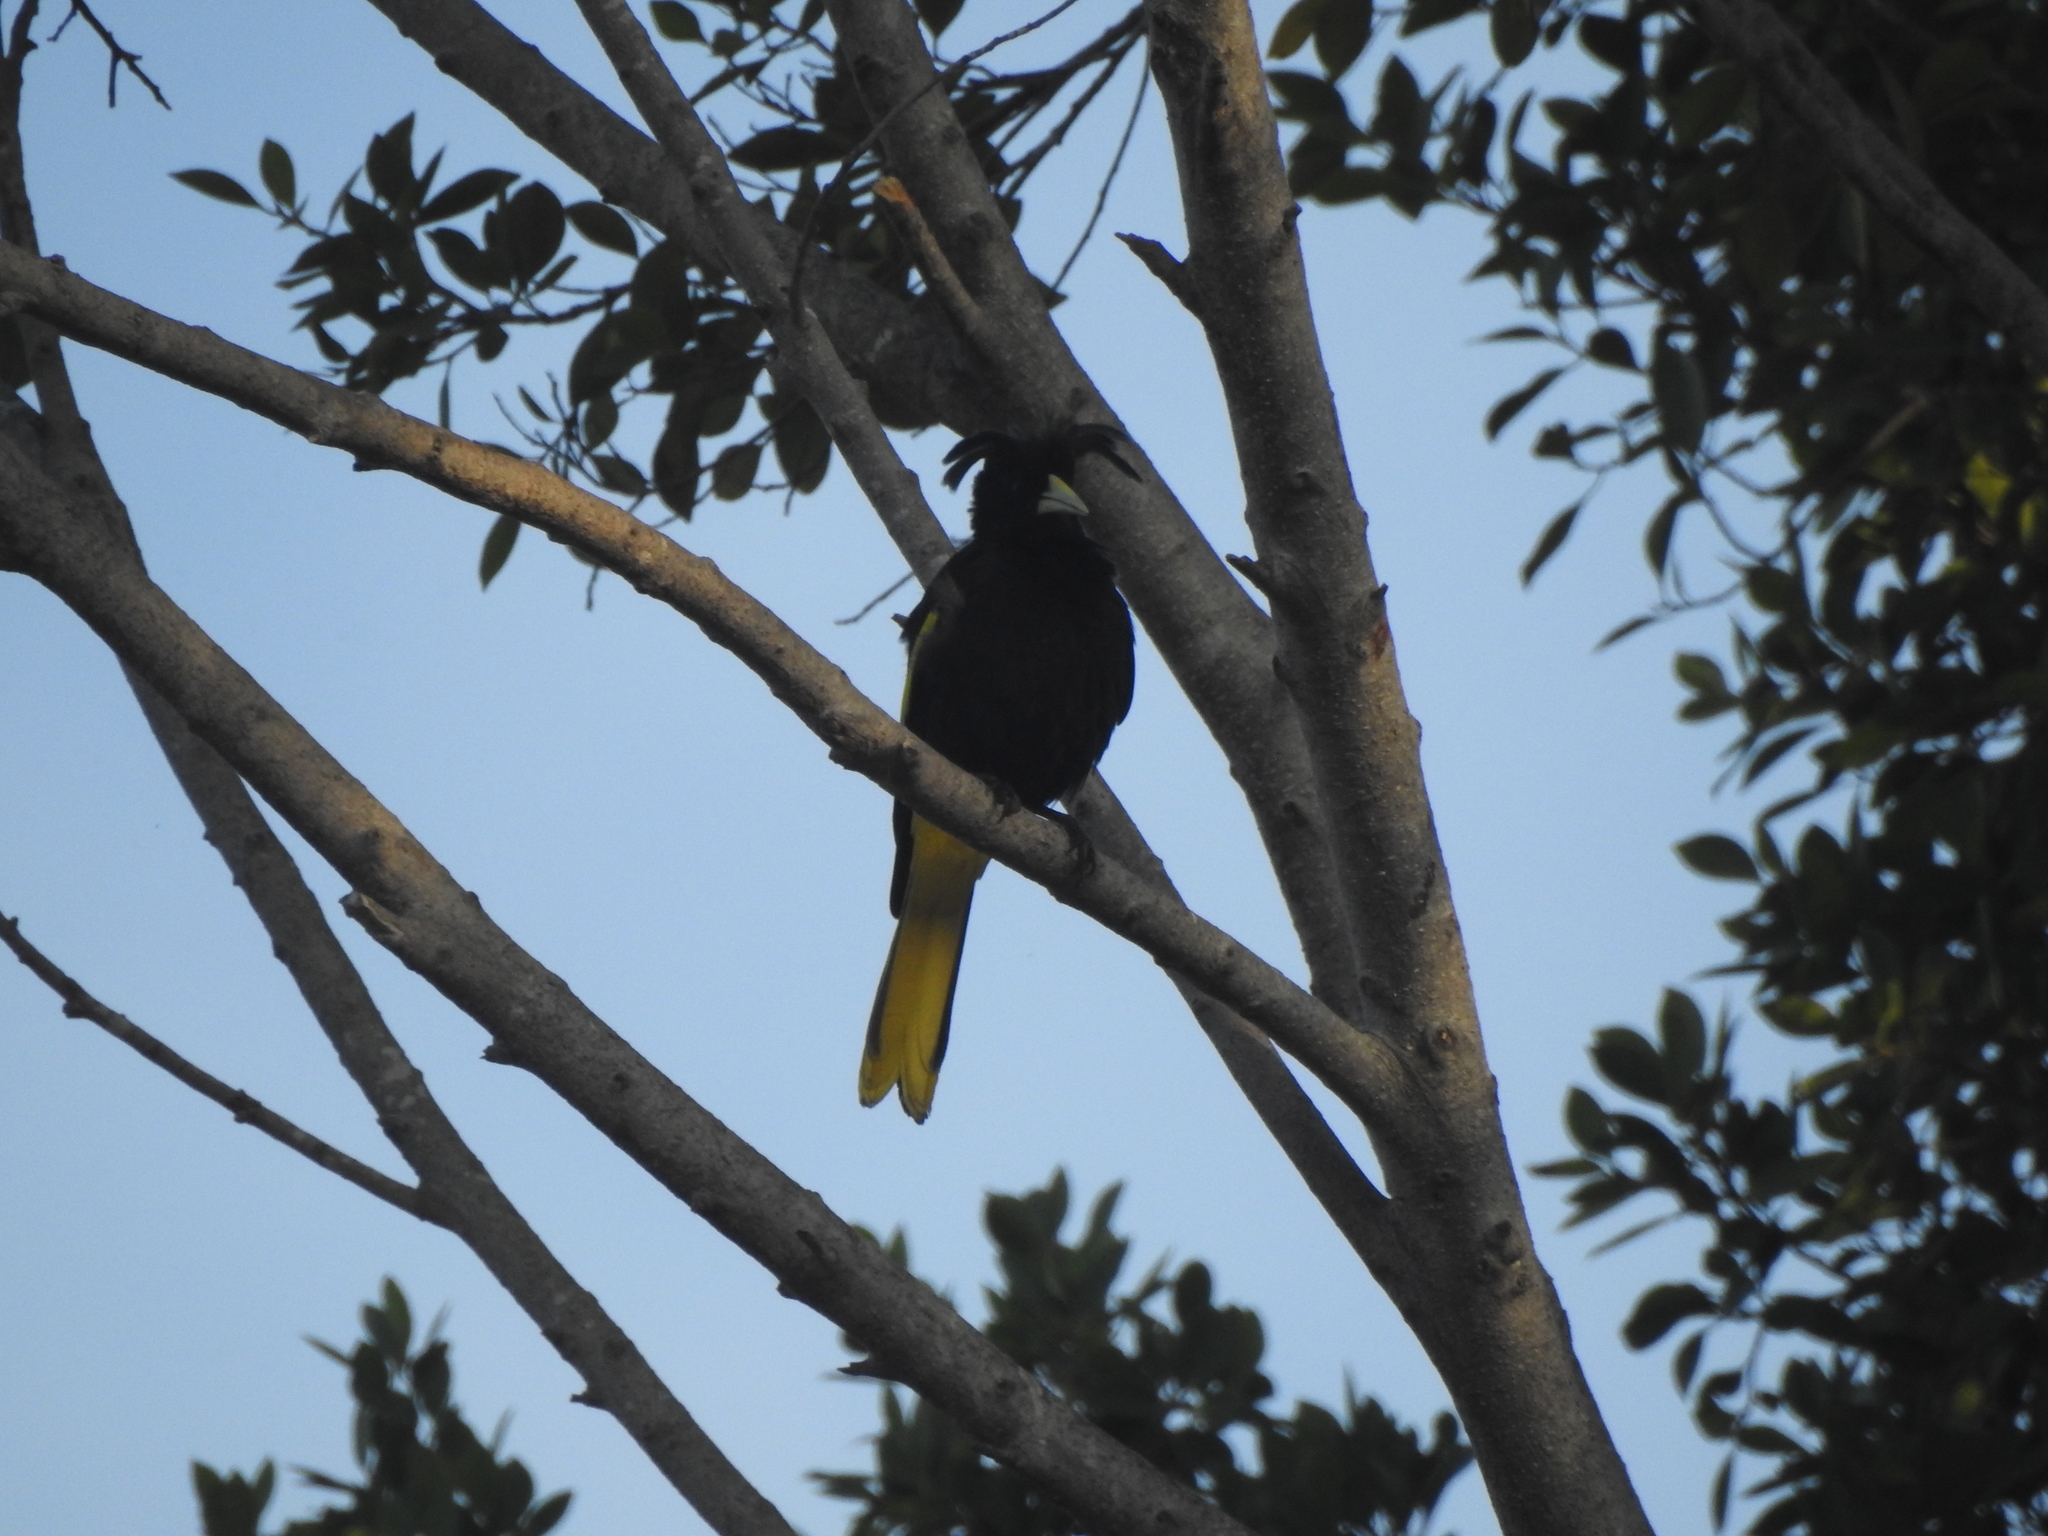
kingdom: Animalia
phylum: Chordata
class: Aves
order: Passeriformes
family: Icteridae
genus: Cacicus
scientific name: Cacicus melanicterus
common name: Yellow-winged cacique
